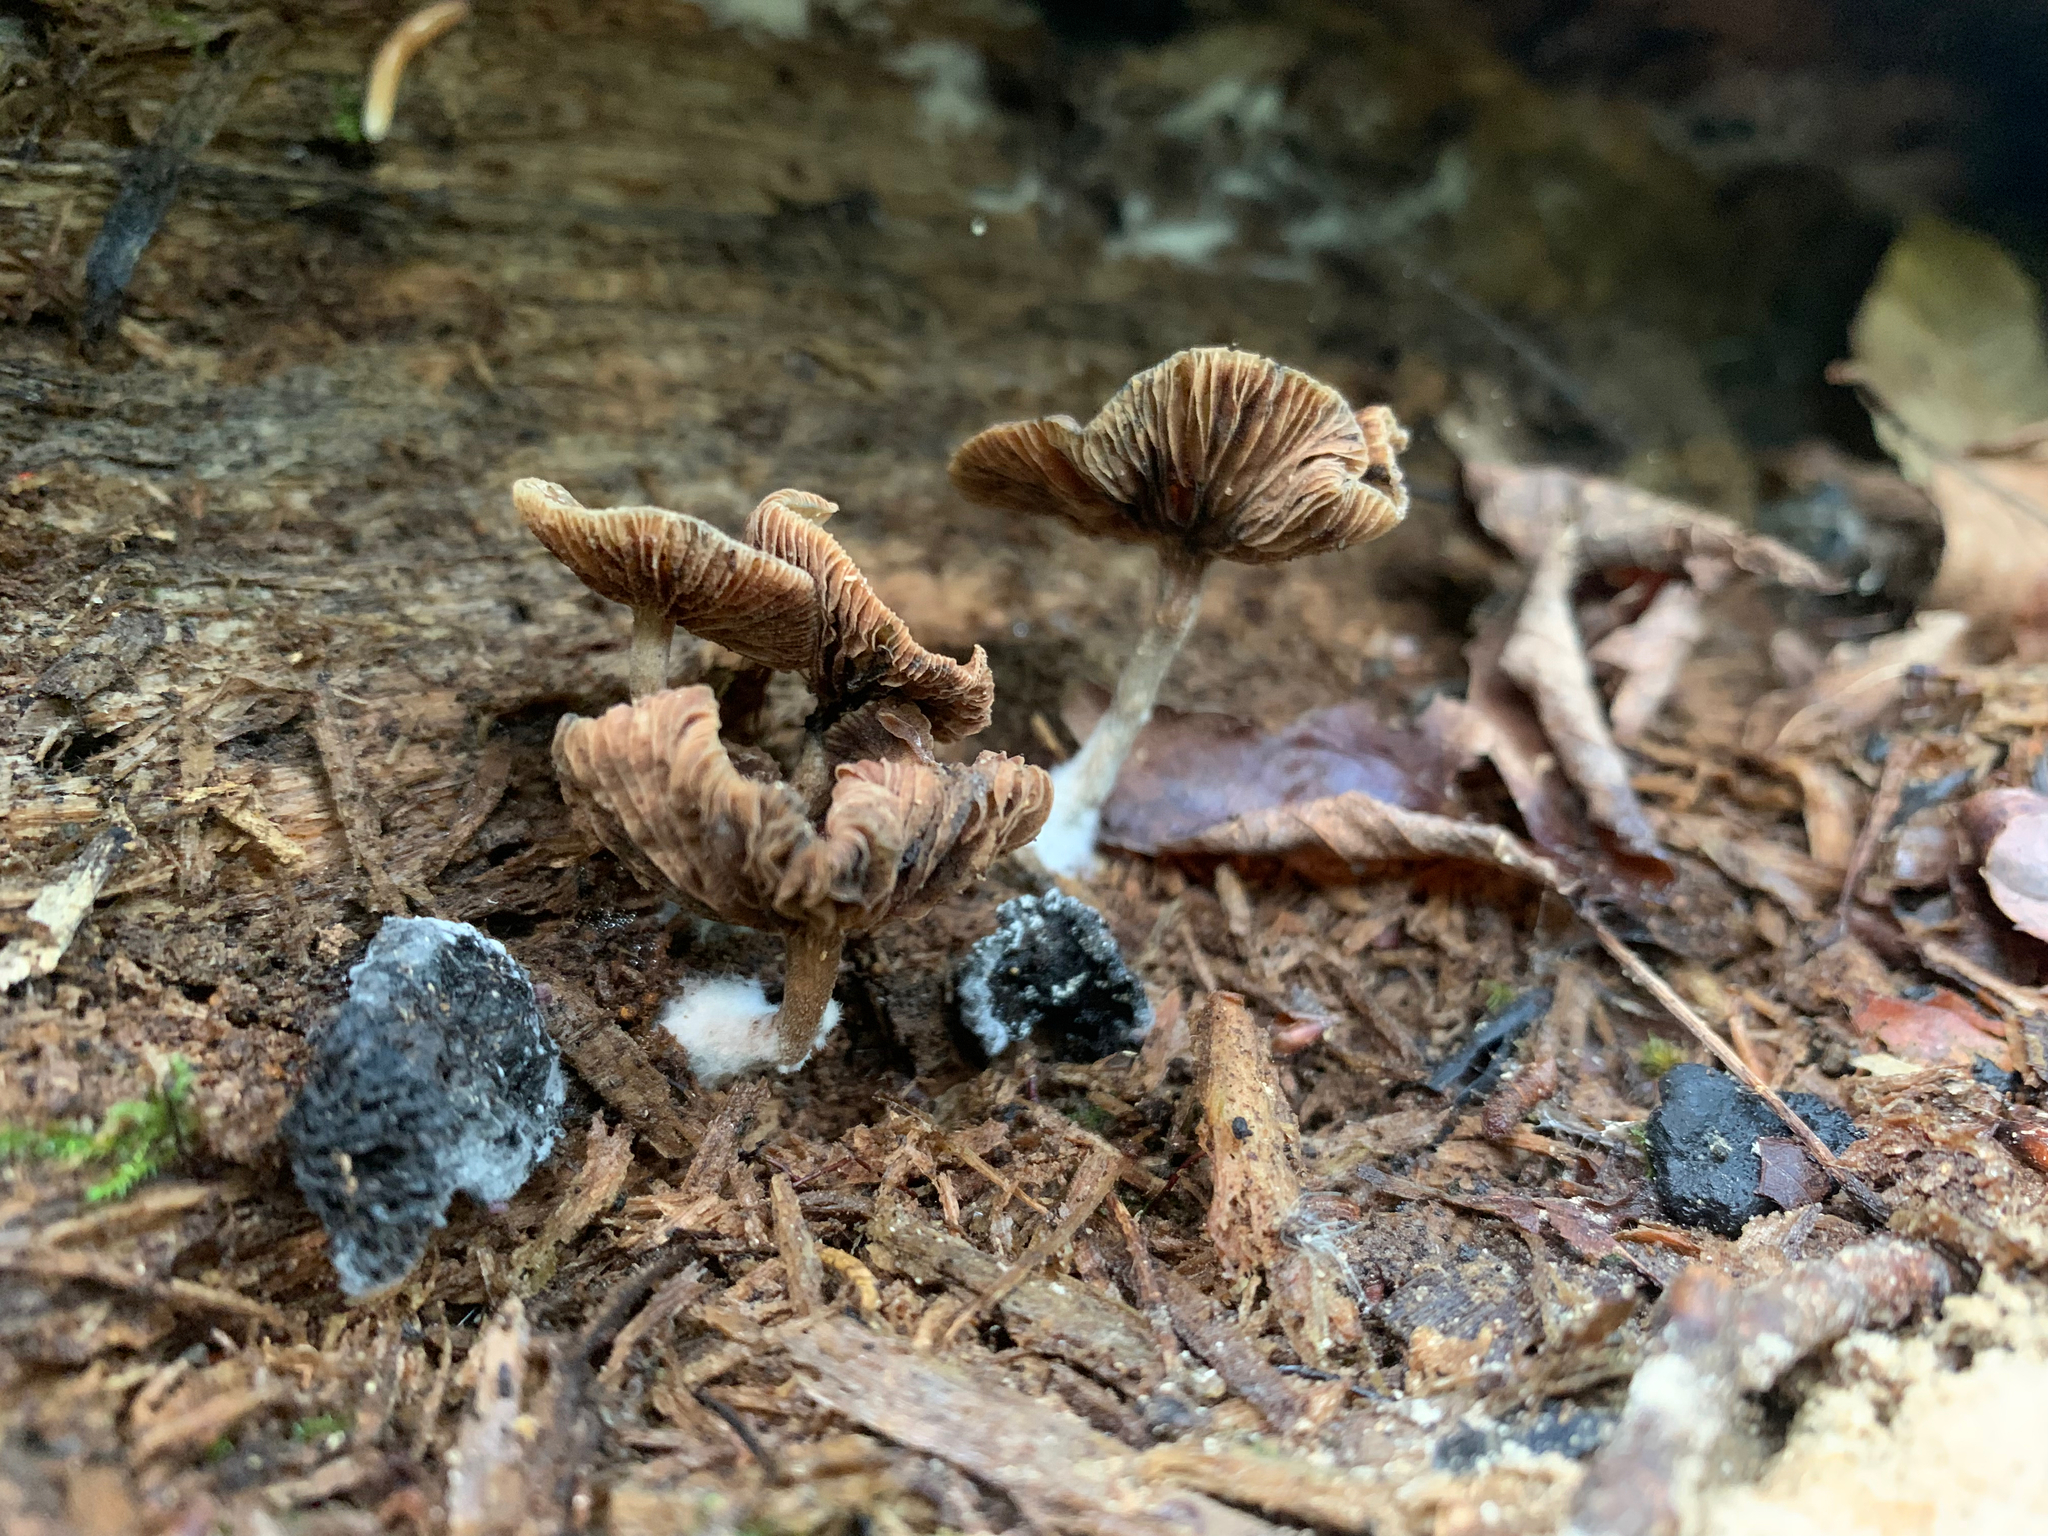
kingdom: Fungi
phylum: Basidiomycota
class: Agaricomycetes
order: Agaricales
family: Hymenogastraceae
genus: Psilocybe
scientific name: Psilocybe caerulipes
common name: Blue-foot
